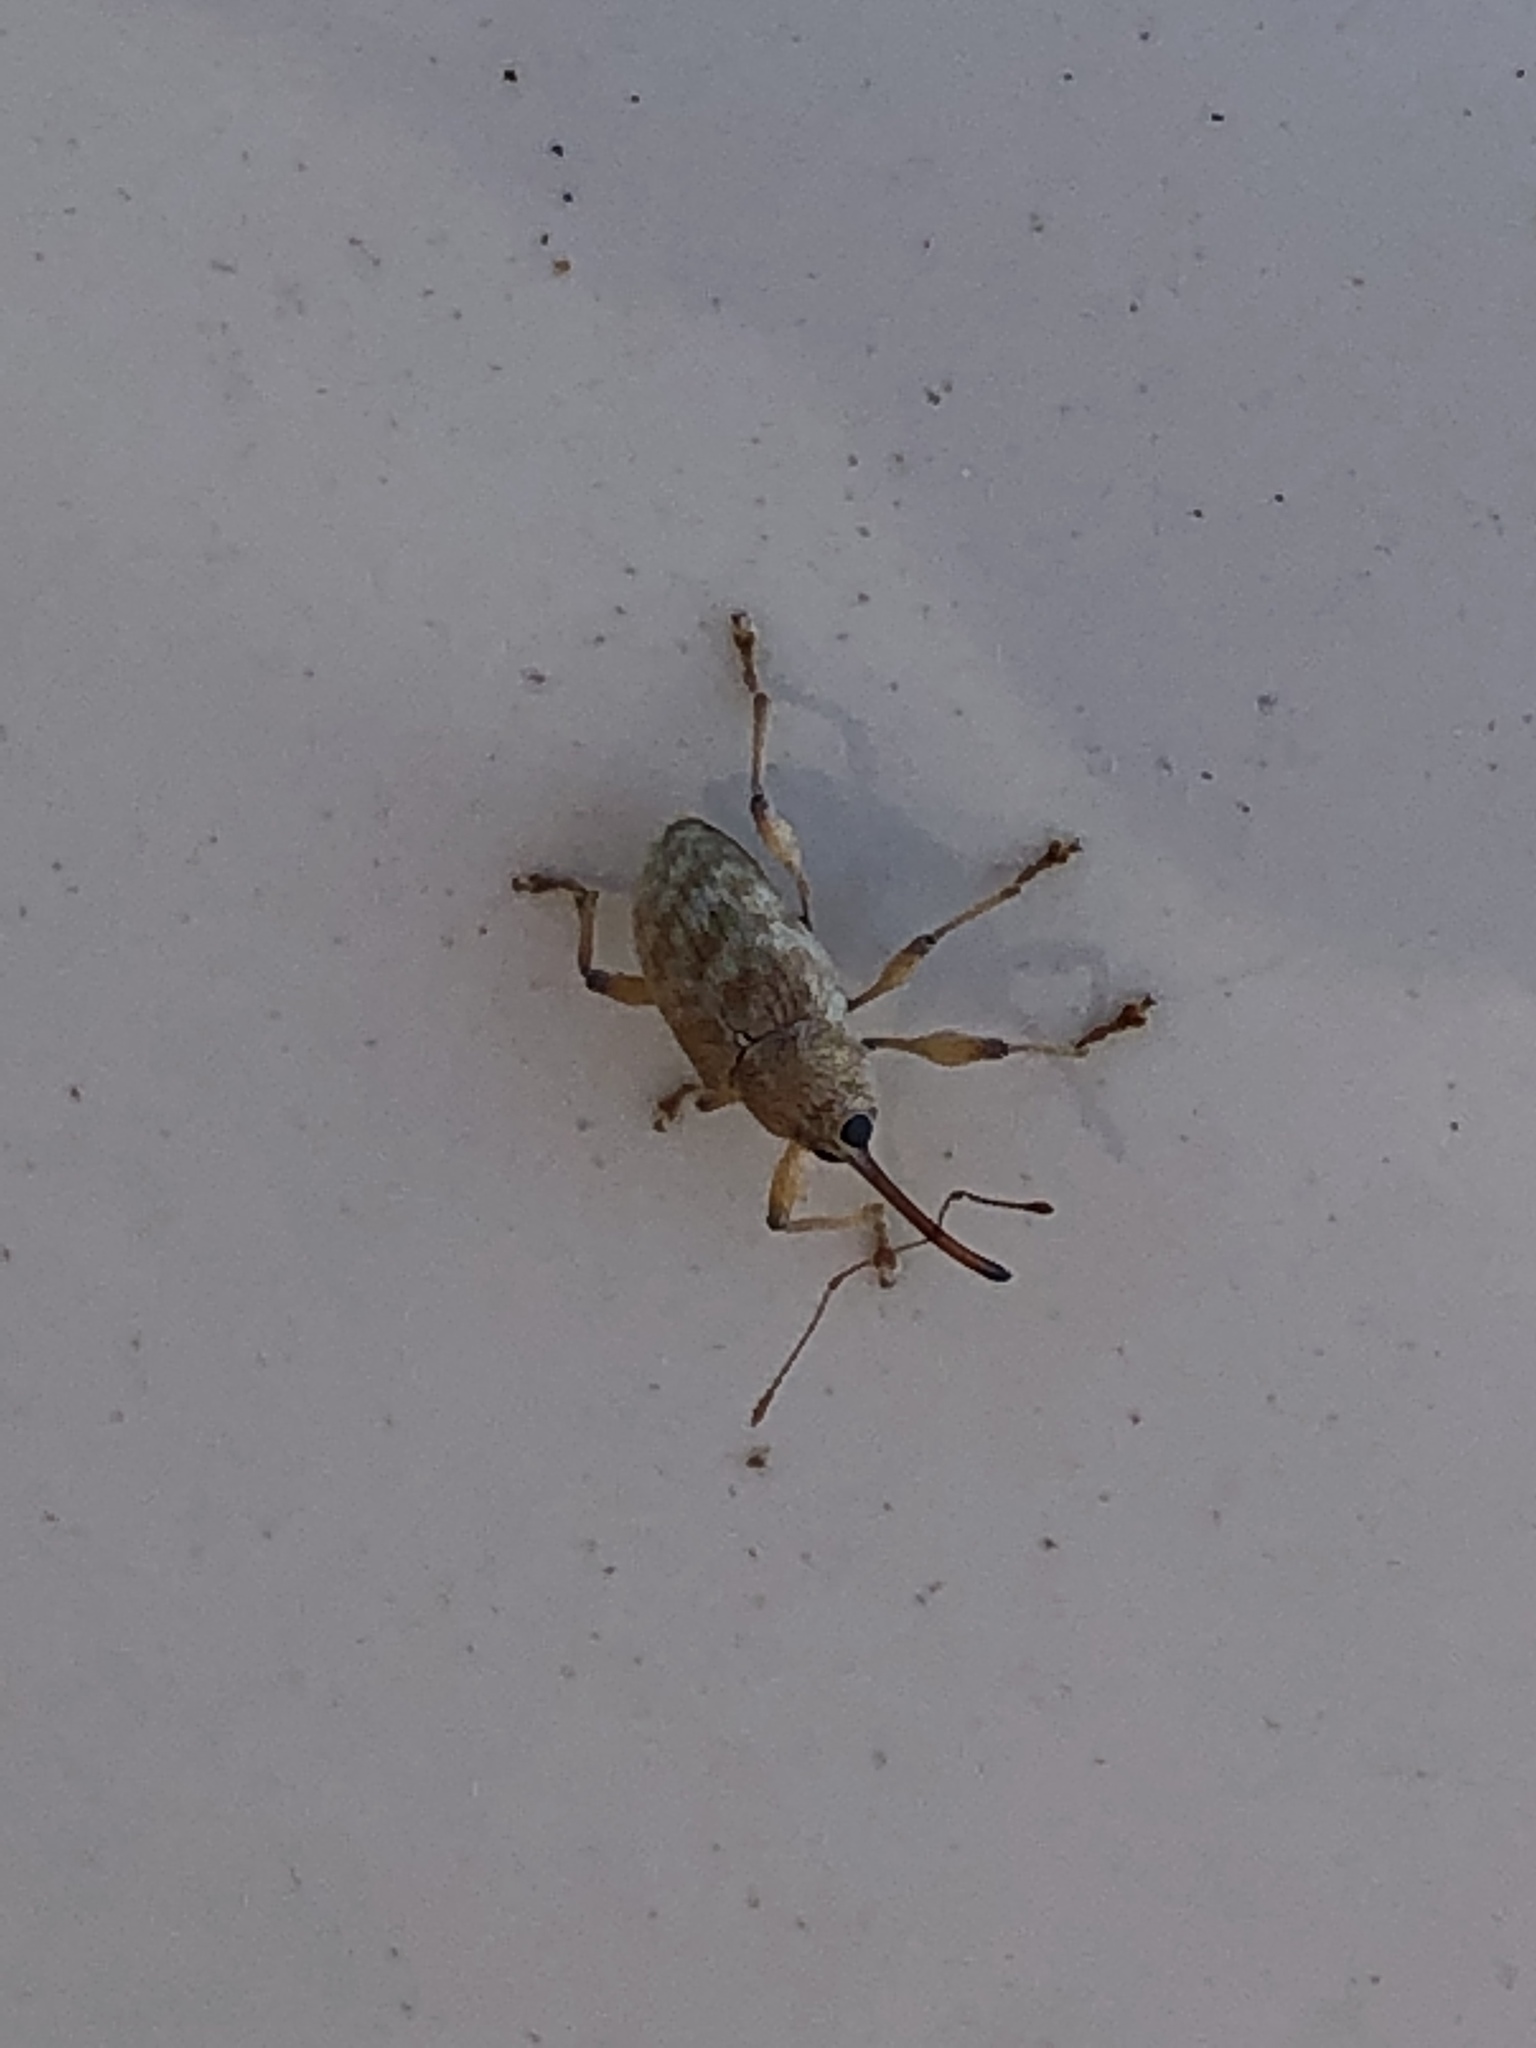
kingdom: Animalia
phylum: Arthropoda
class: Insecta
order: Coleoptera
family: Curculionidae
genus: Curculio
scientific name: Curculio elephas
